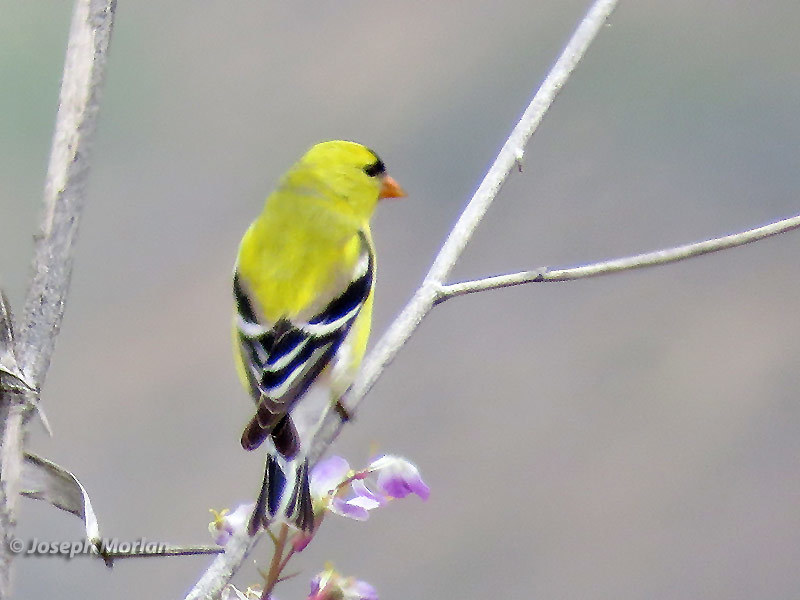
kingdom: Animalia
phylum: Chordata
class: Aves
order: Passeriformes
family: Fringillidae
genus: Spinus
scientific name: Spinus tristis
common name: American goldfinch
